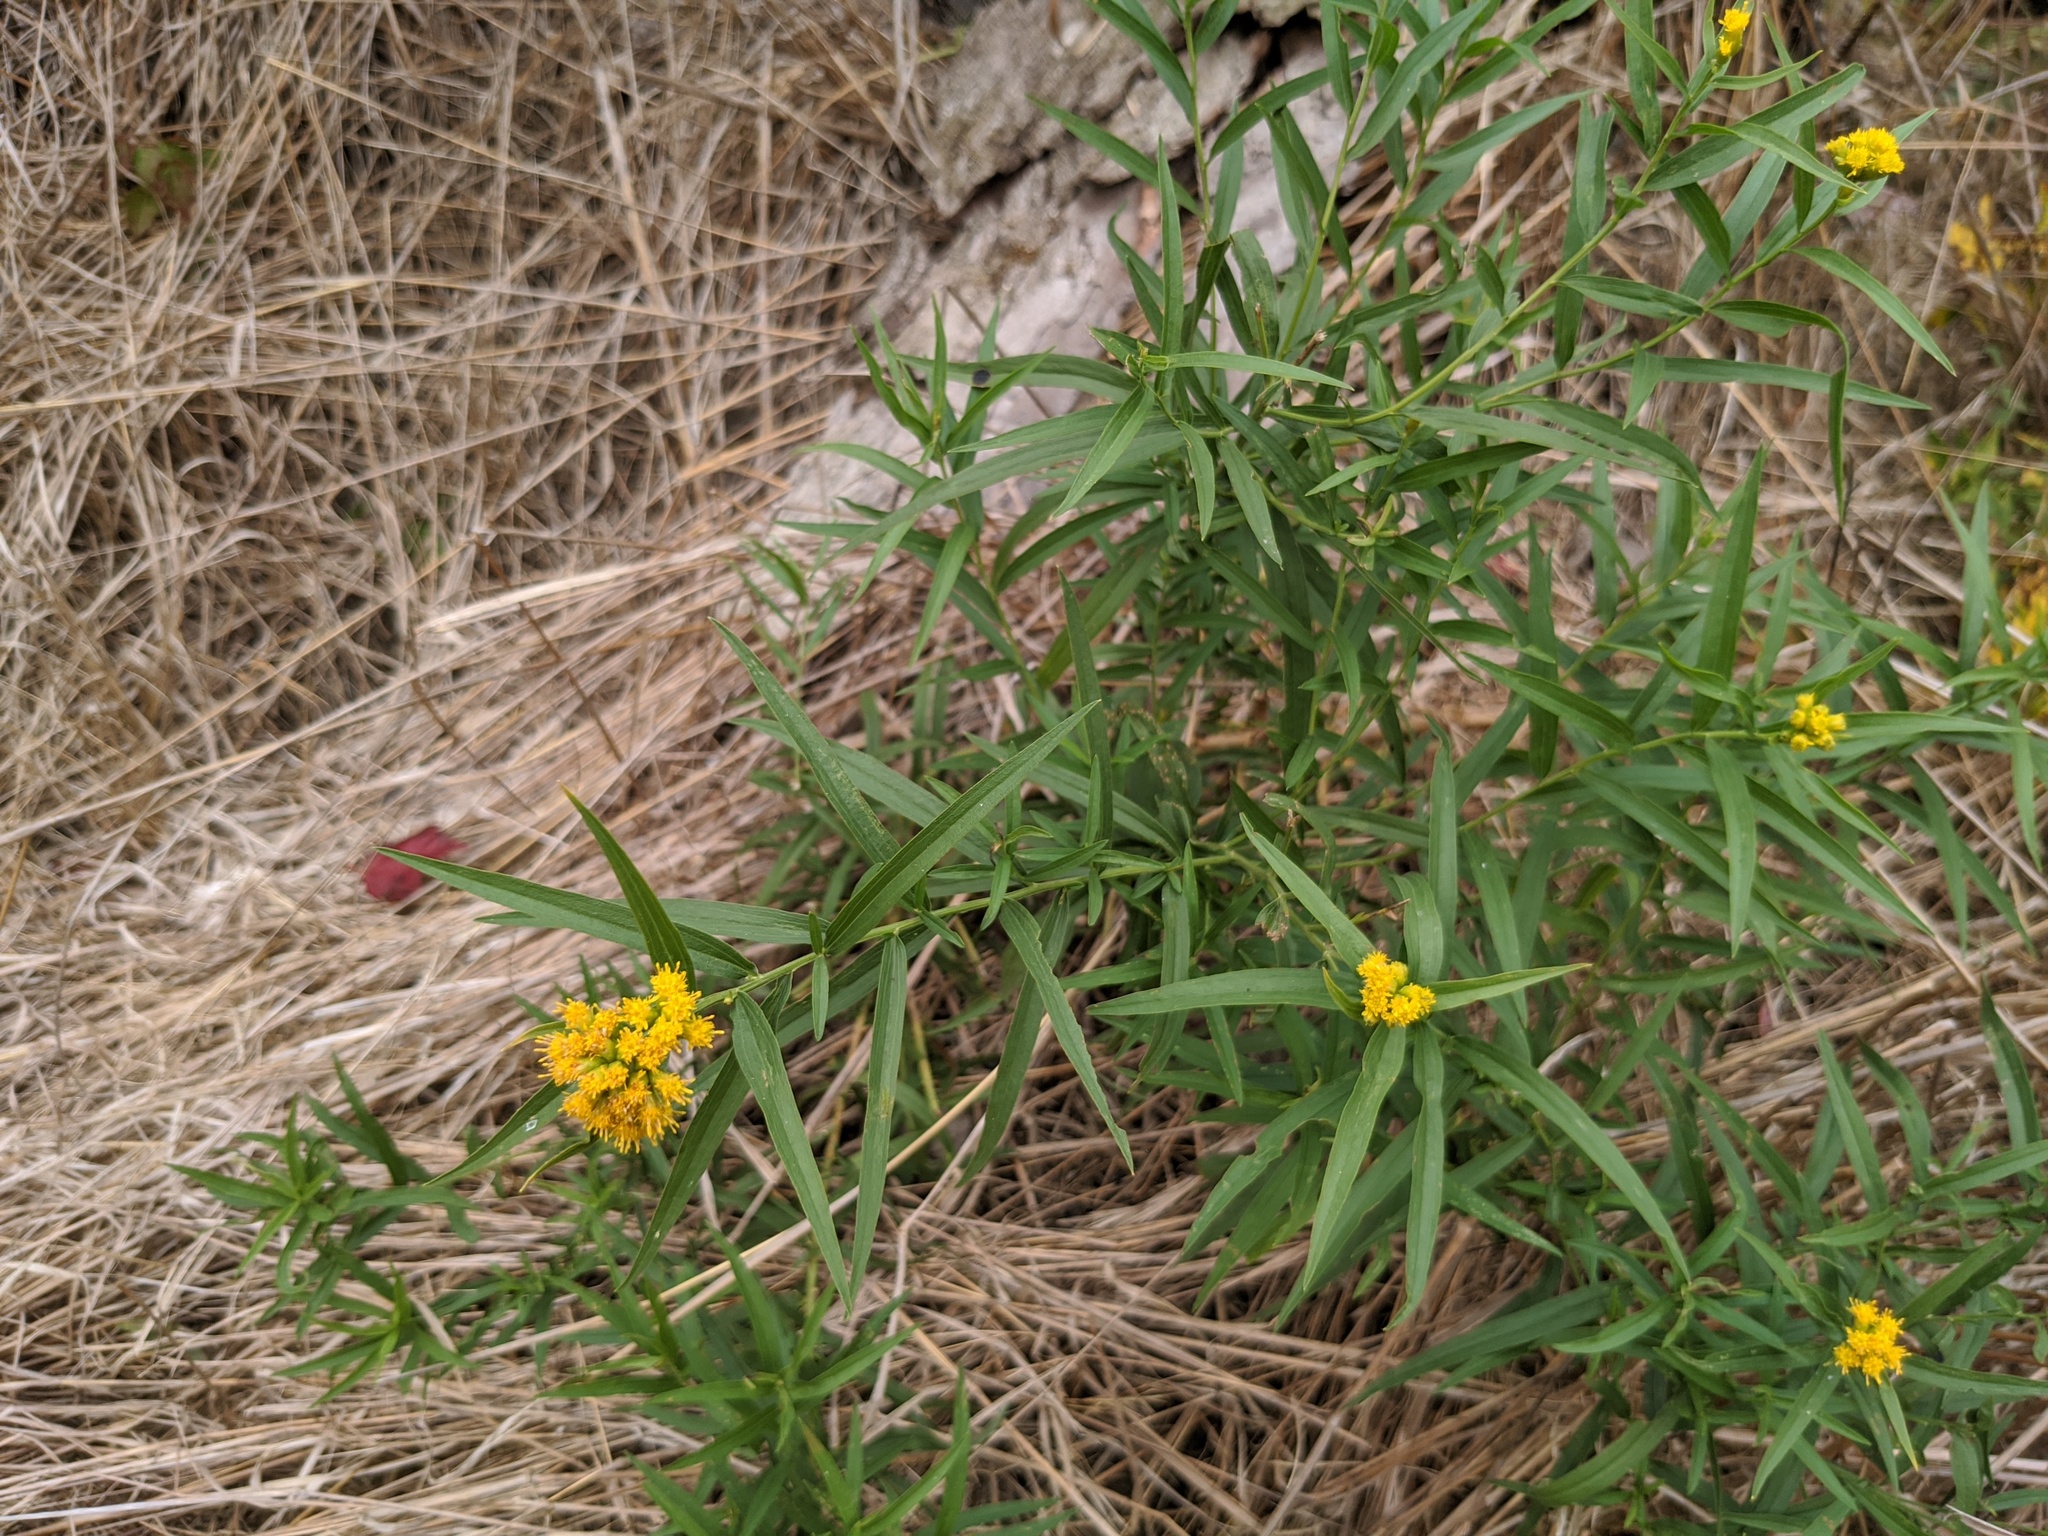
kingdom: Plantae
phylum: Tracheophyta
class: Magnoliopsida
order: Asterales
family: Asteraceae
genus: Euthamia
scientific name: Euthamia graminifolia
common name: Common goldentop
